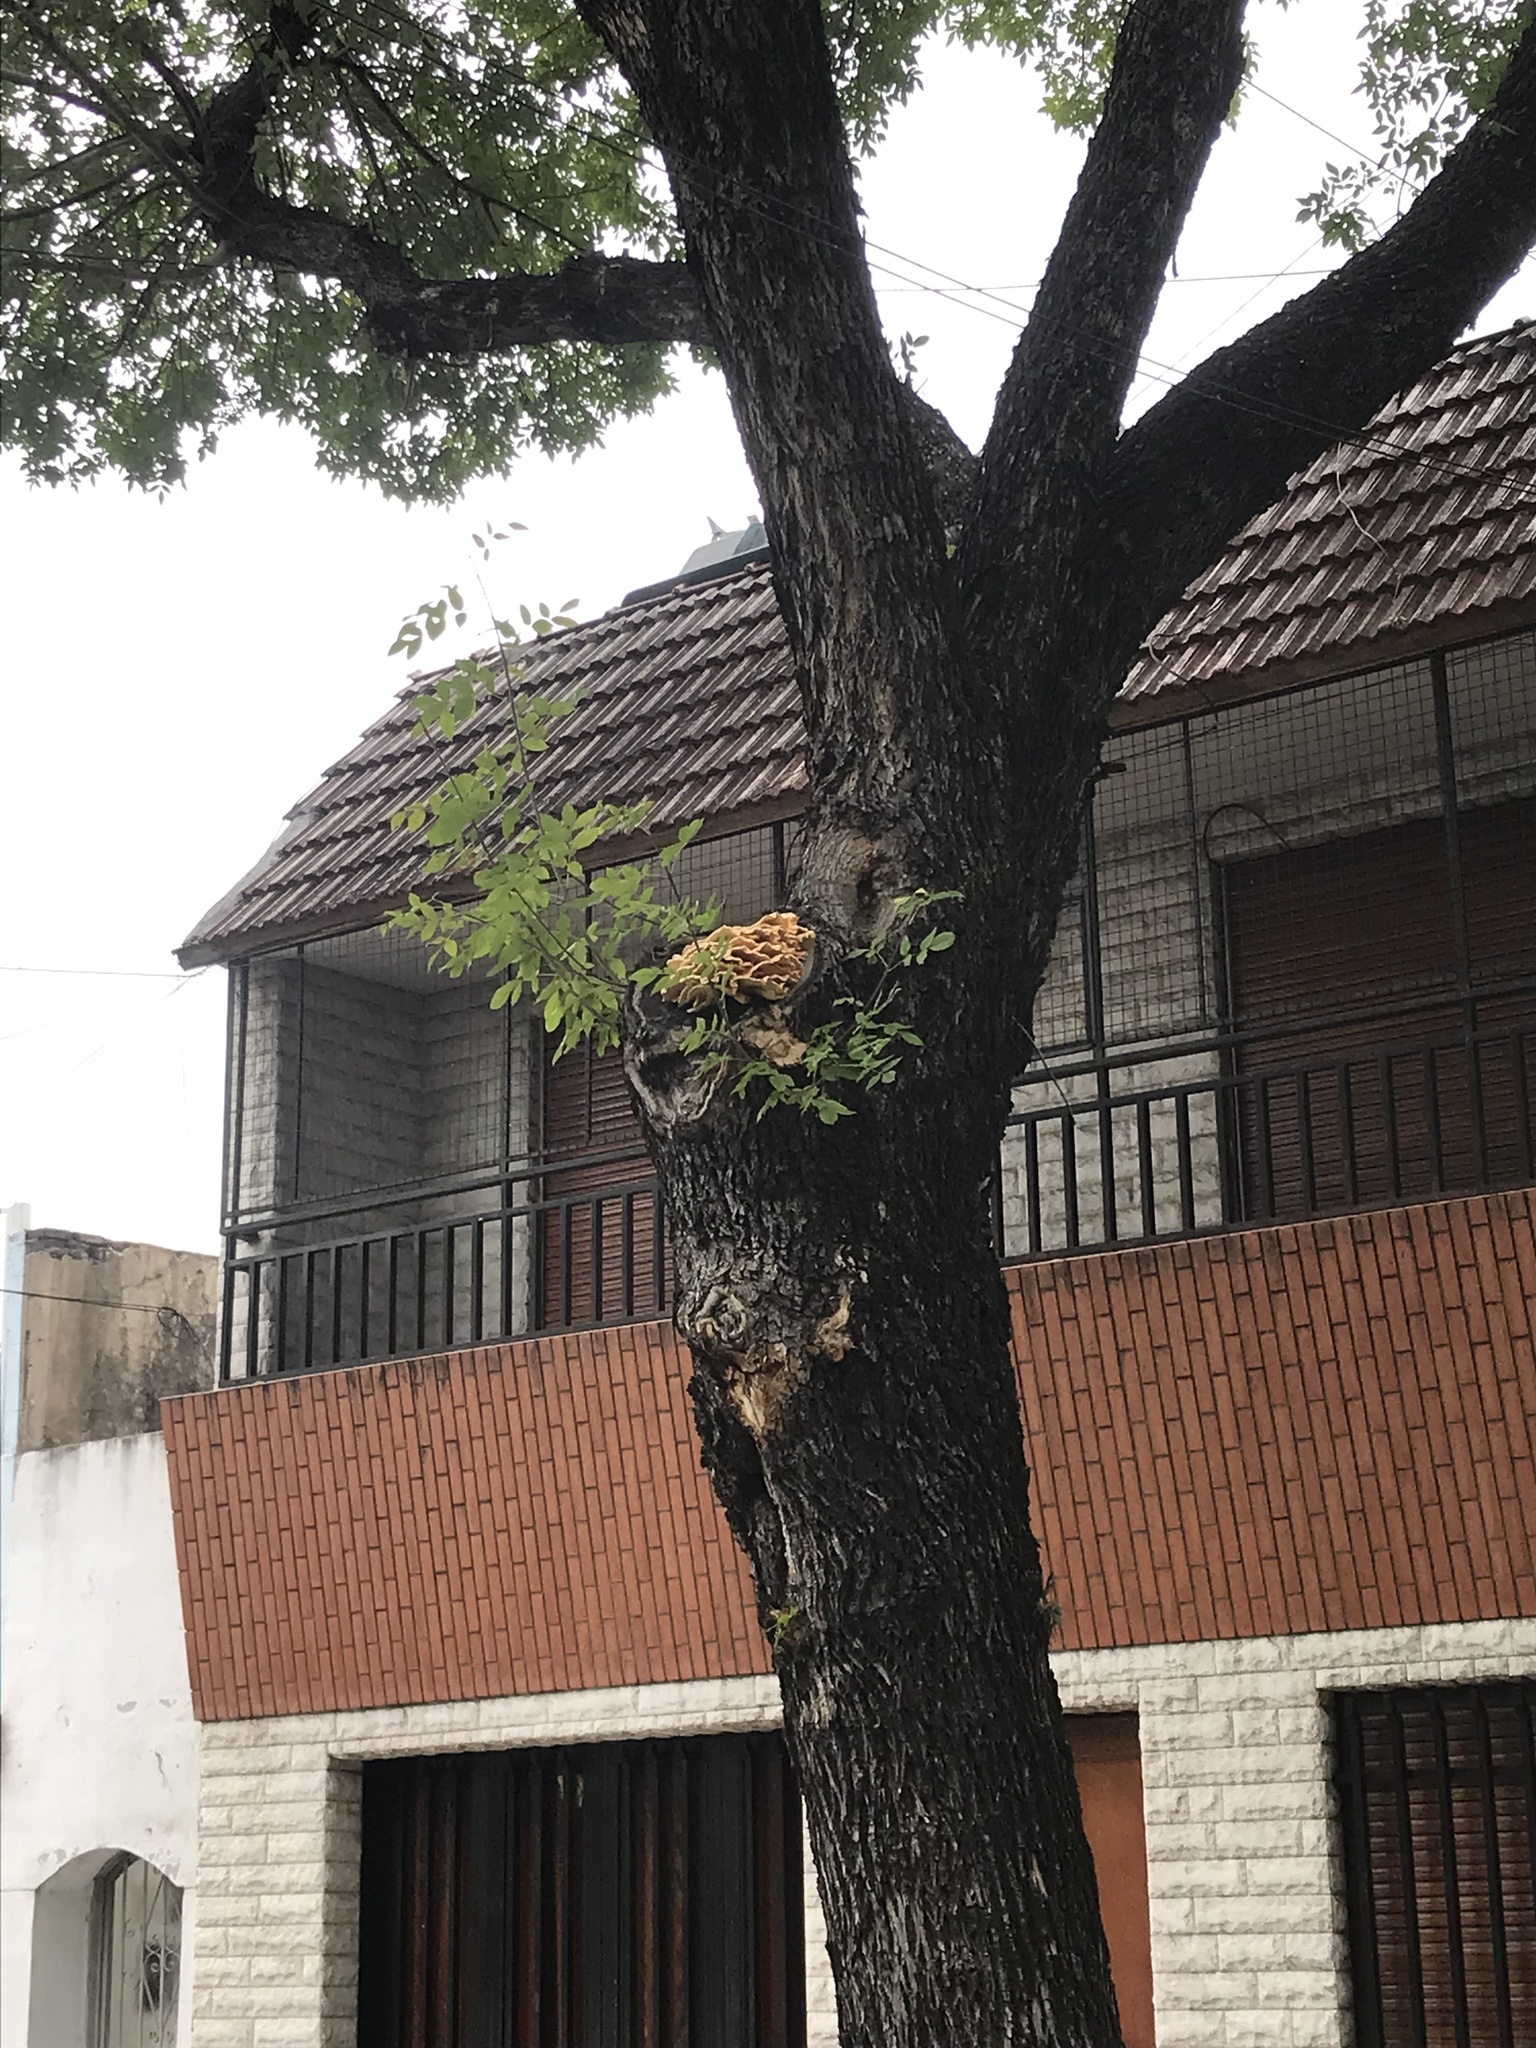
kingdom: Fungi
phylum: Basidiomycota
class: Agaricomycetes
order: Polyporales
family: Laetiporaceae
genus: Laetiporus
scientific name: Laetiporus sulphureus
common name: Chicken of the woods
